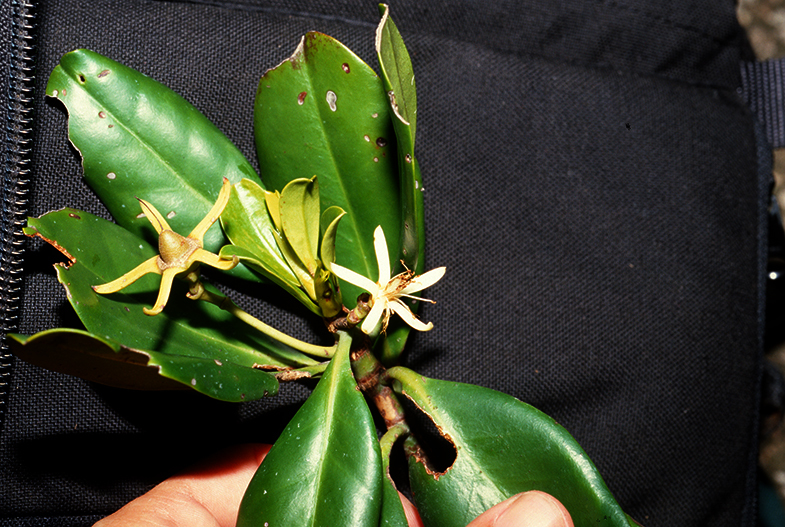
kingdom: Plantae
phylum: Tracheophyta
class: Magnoliopsida
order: Malpighiales
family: Rhizophoraceae
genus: Kandelia
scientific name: Kandelia obovata
